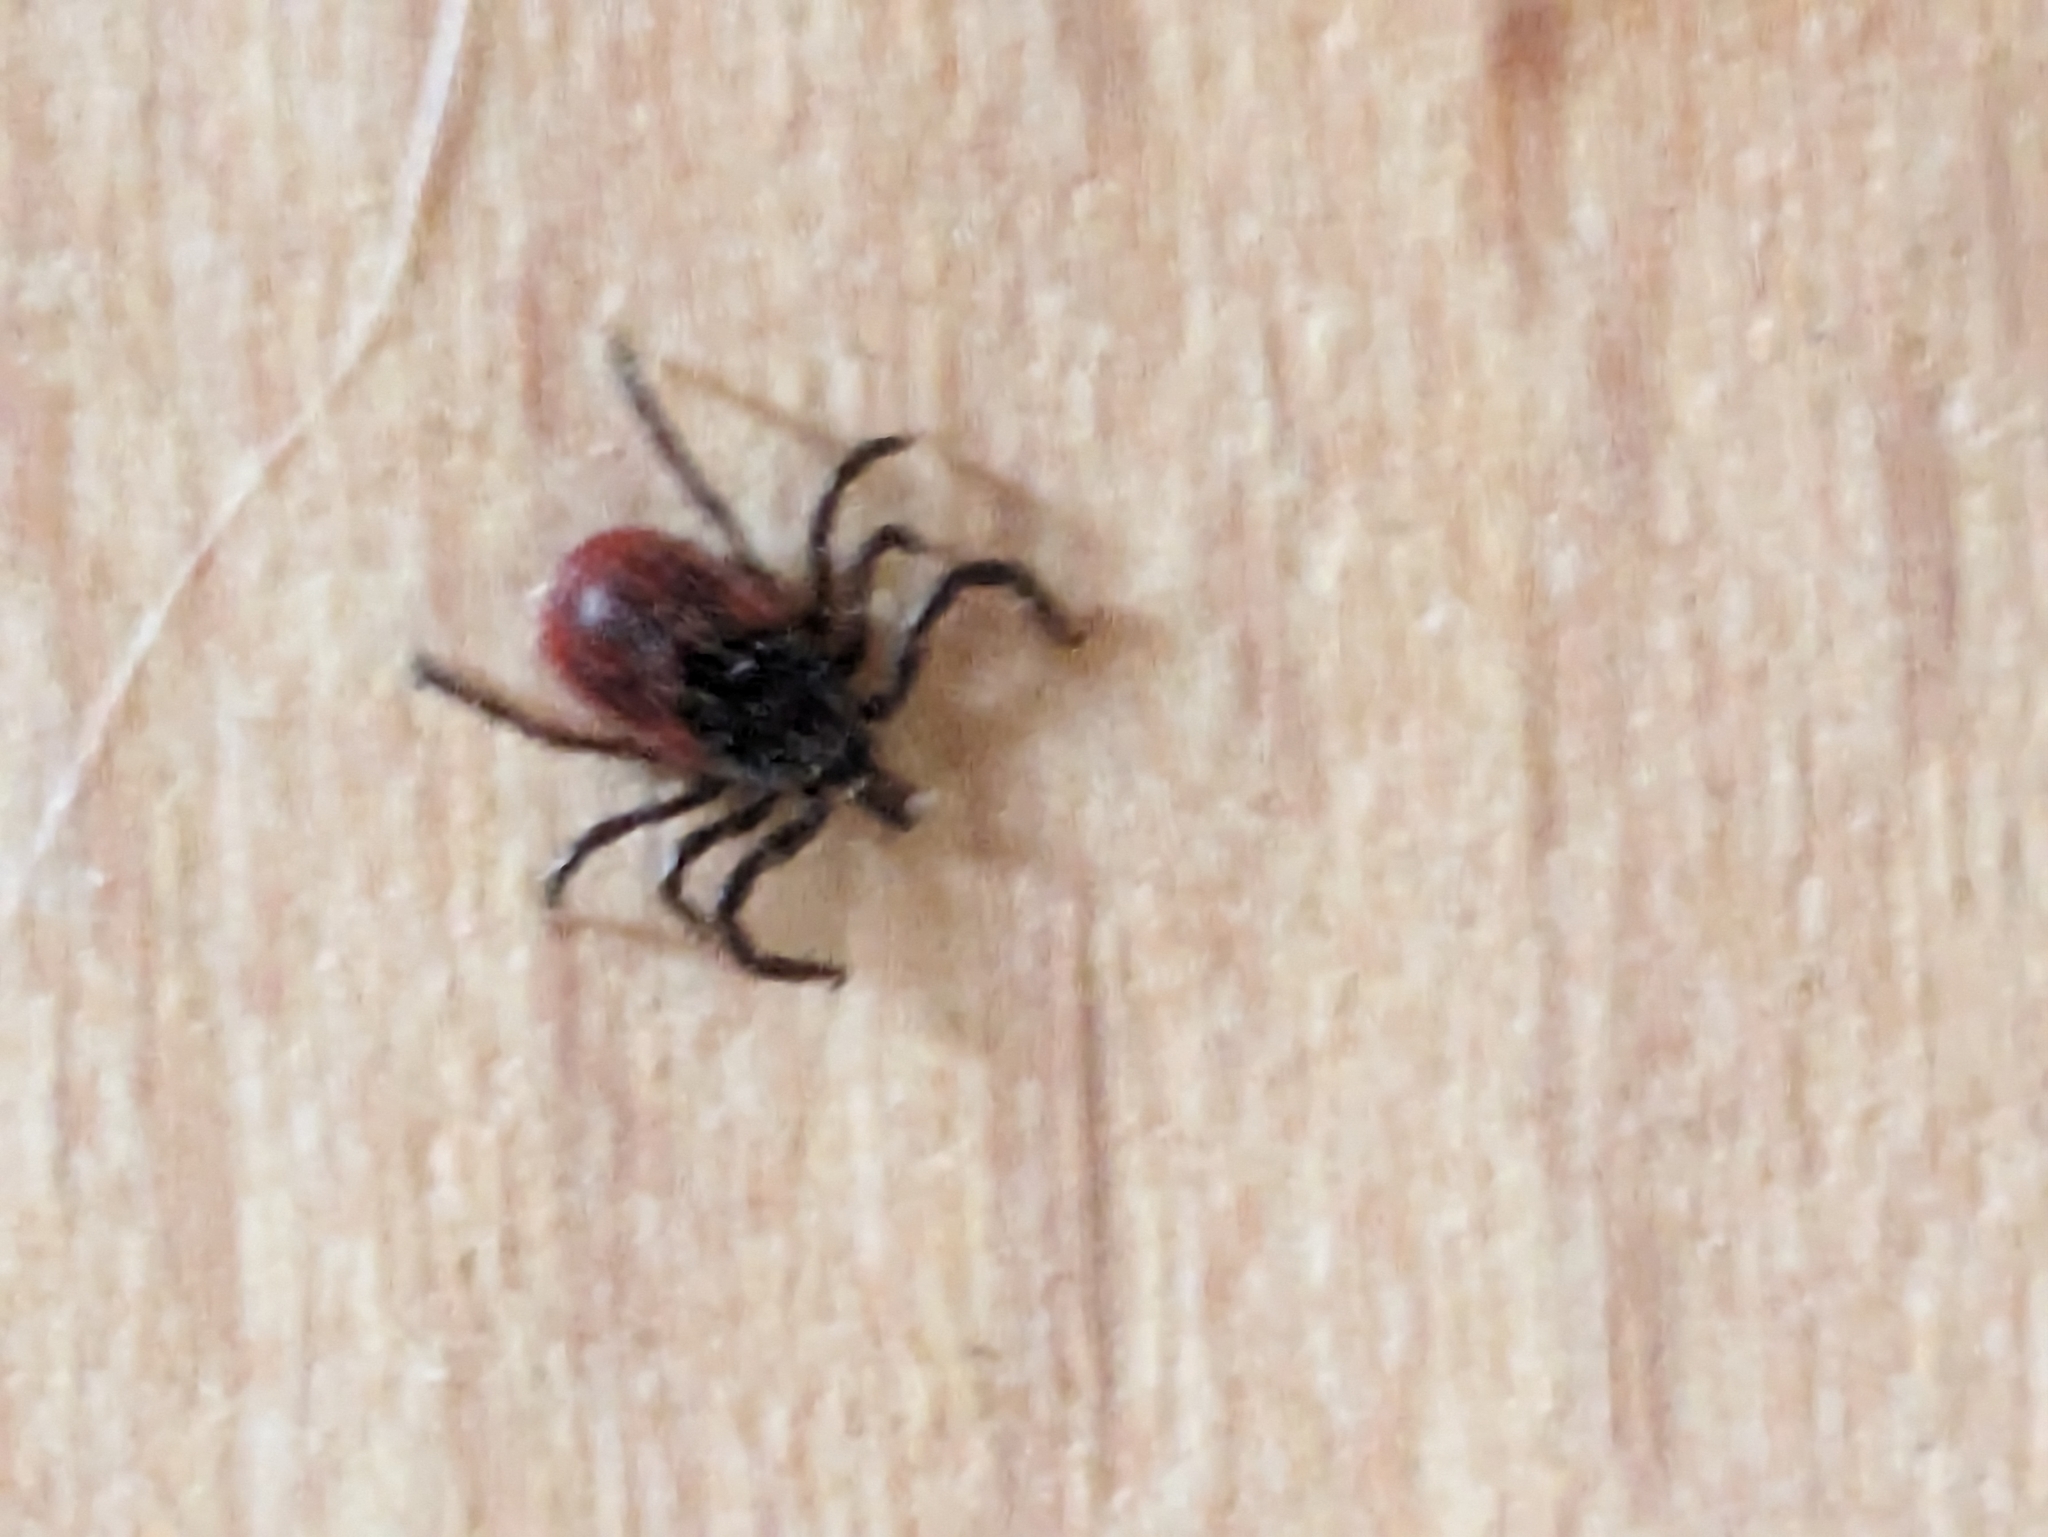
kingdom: Animalia
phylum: Arthropoda
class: Arachnida
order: Ixodida
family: Ixodidae
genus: Ixodes
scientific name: Ixodes pacificus
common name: California black-legged tick
